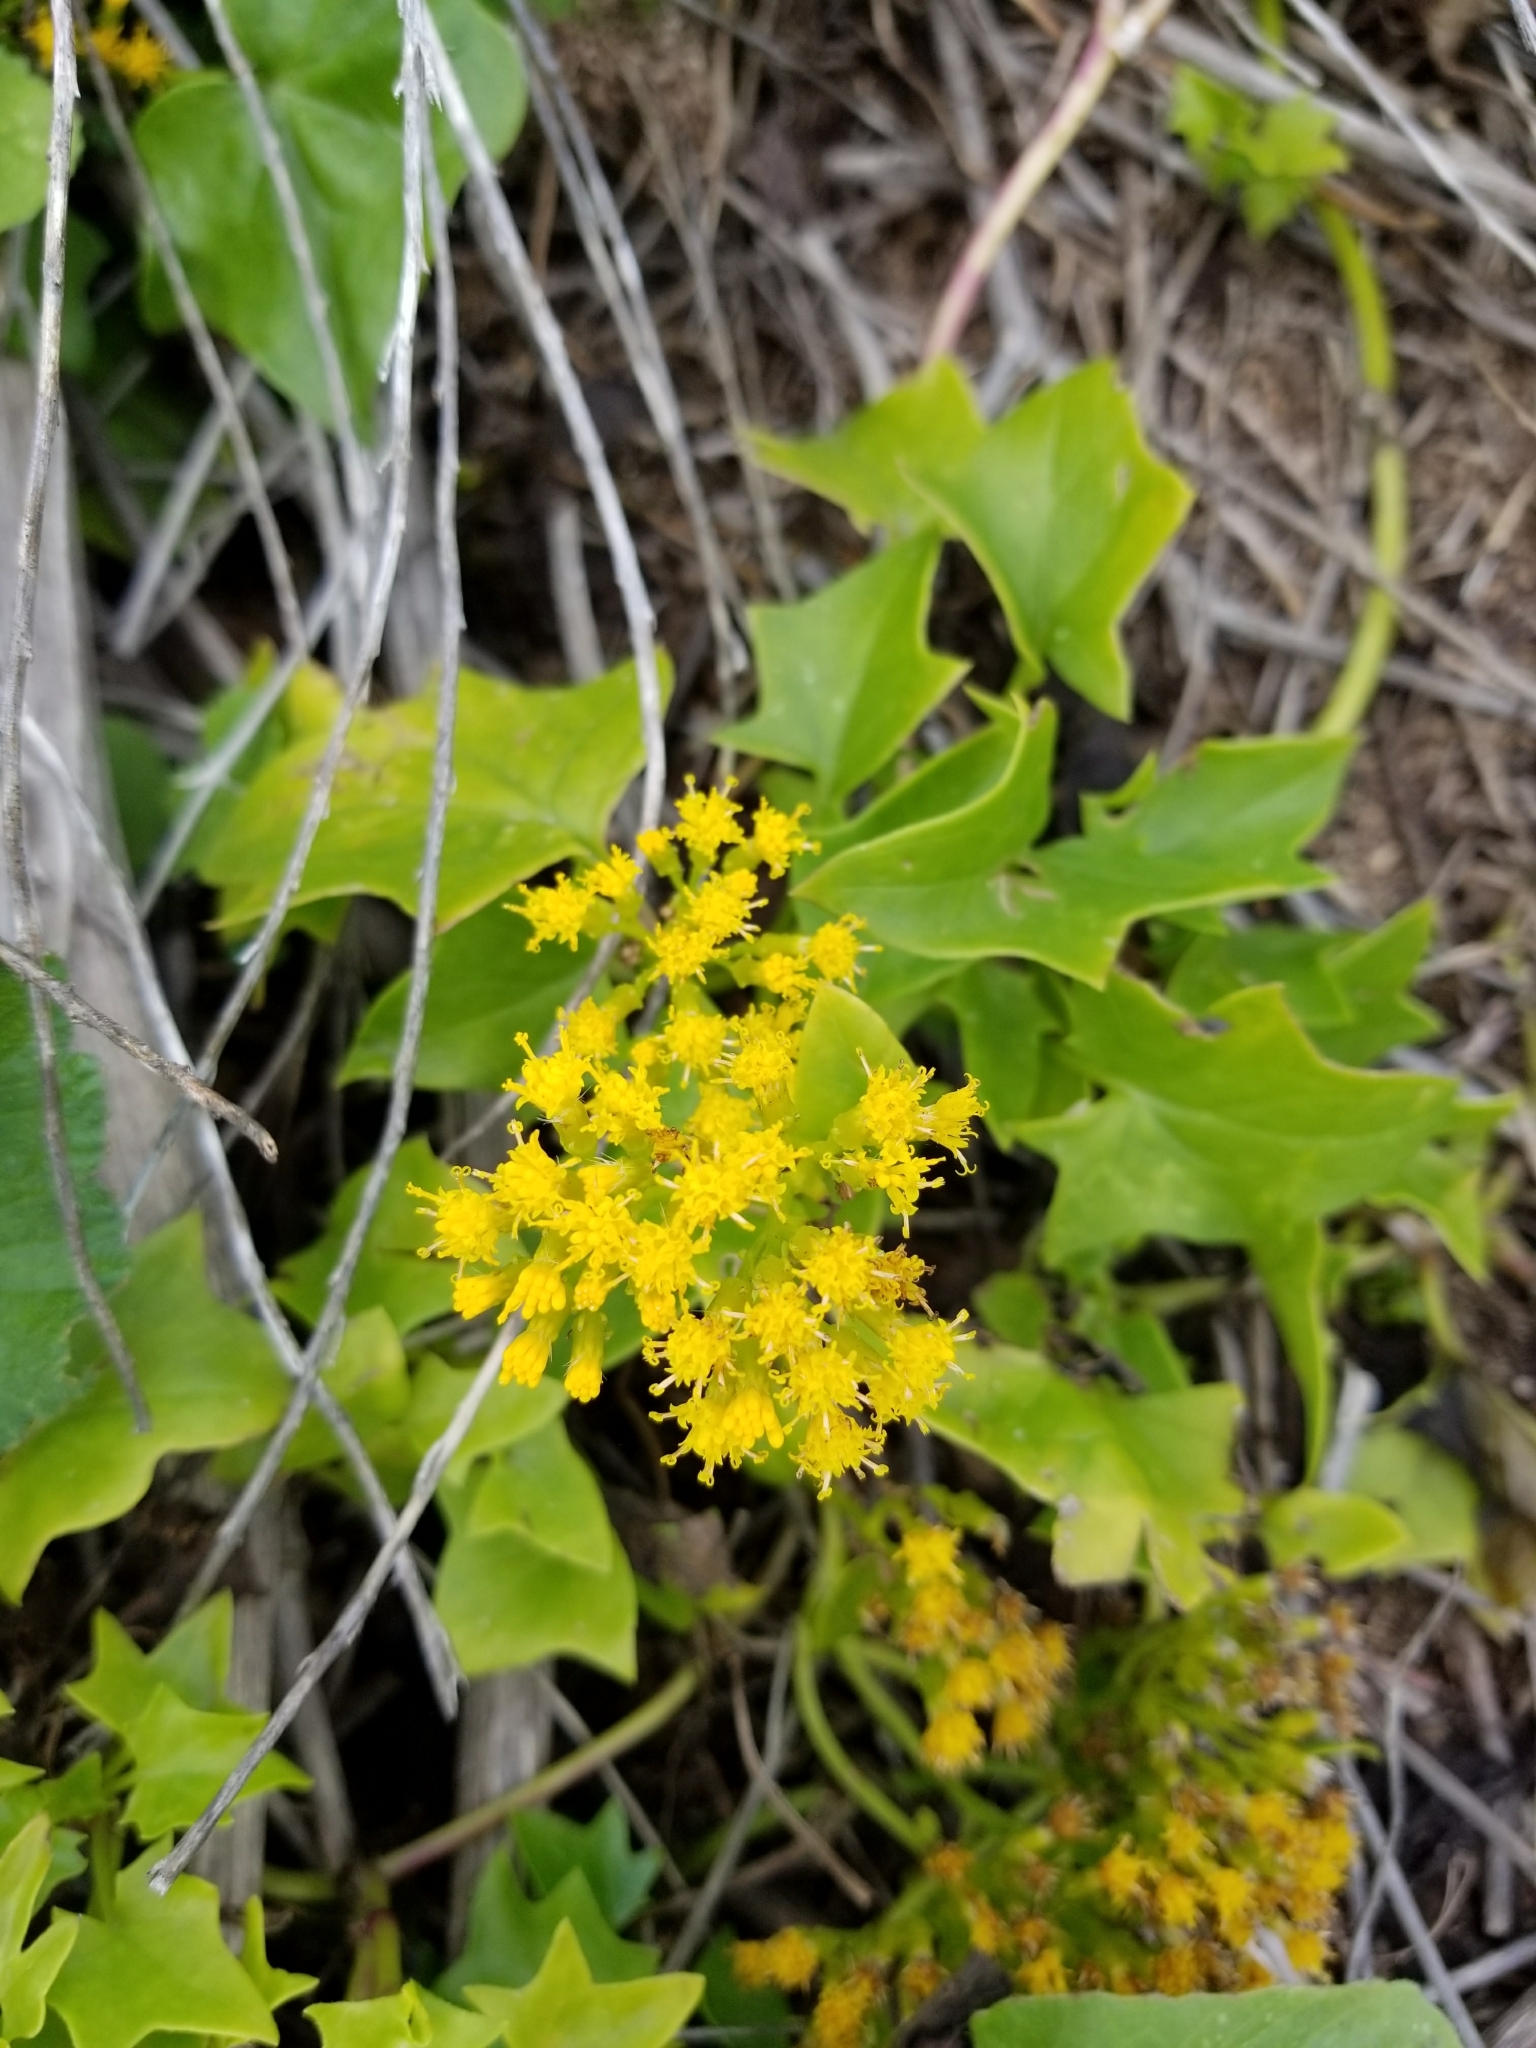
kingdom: Plantae
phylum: Tracheophyta
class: Magnoliopsida
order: Asterales
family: Asteraceae
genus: Delairea
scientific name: Delairea odorata
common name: Cape-ivy
